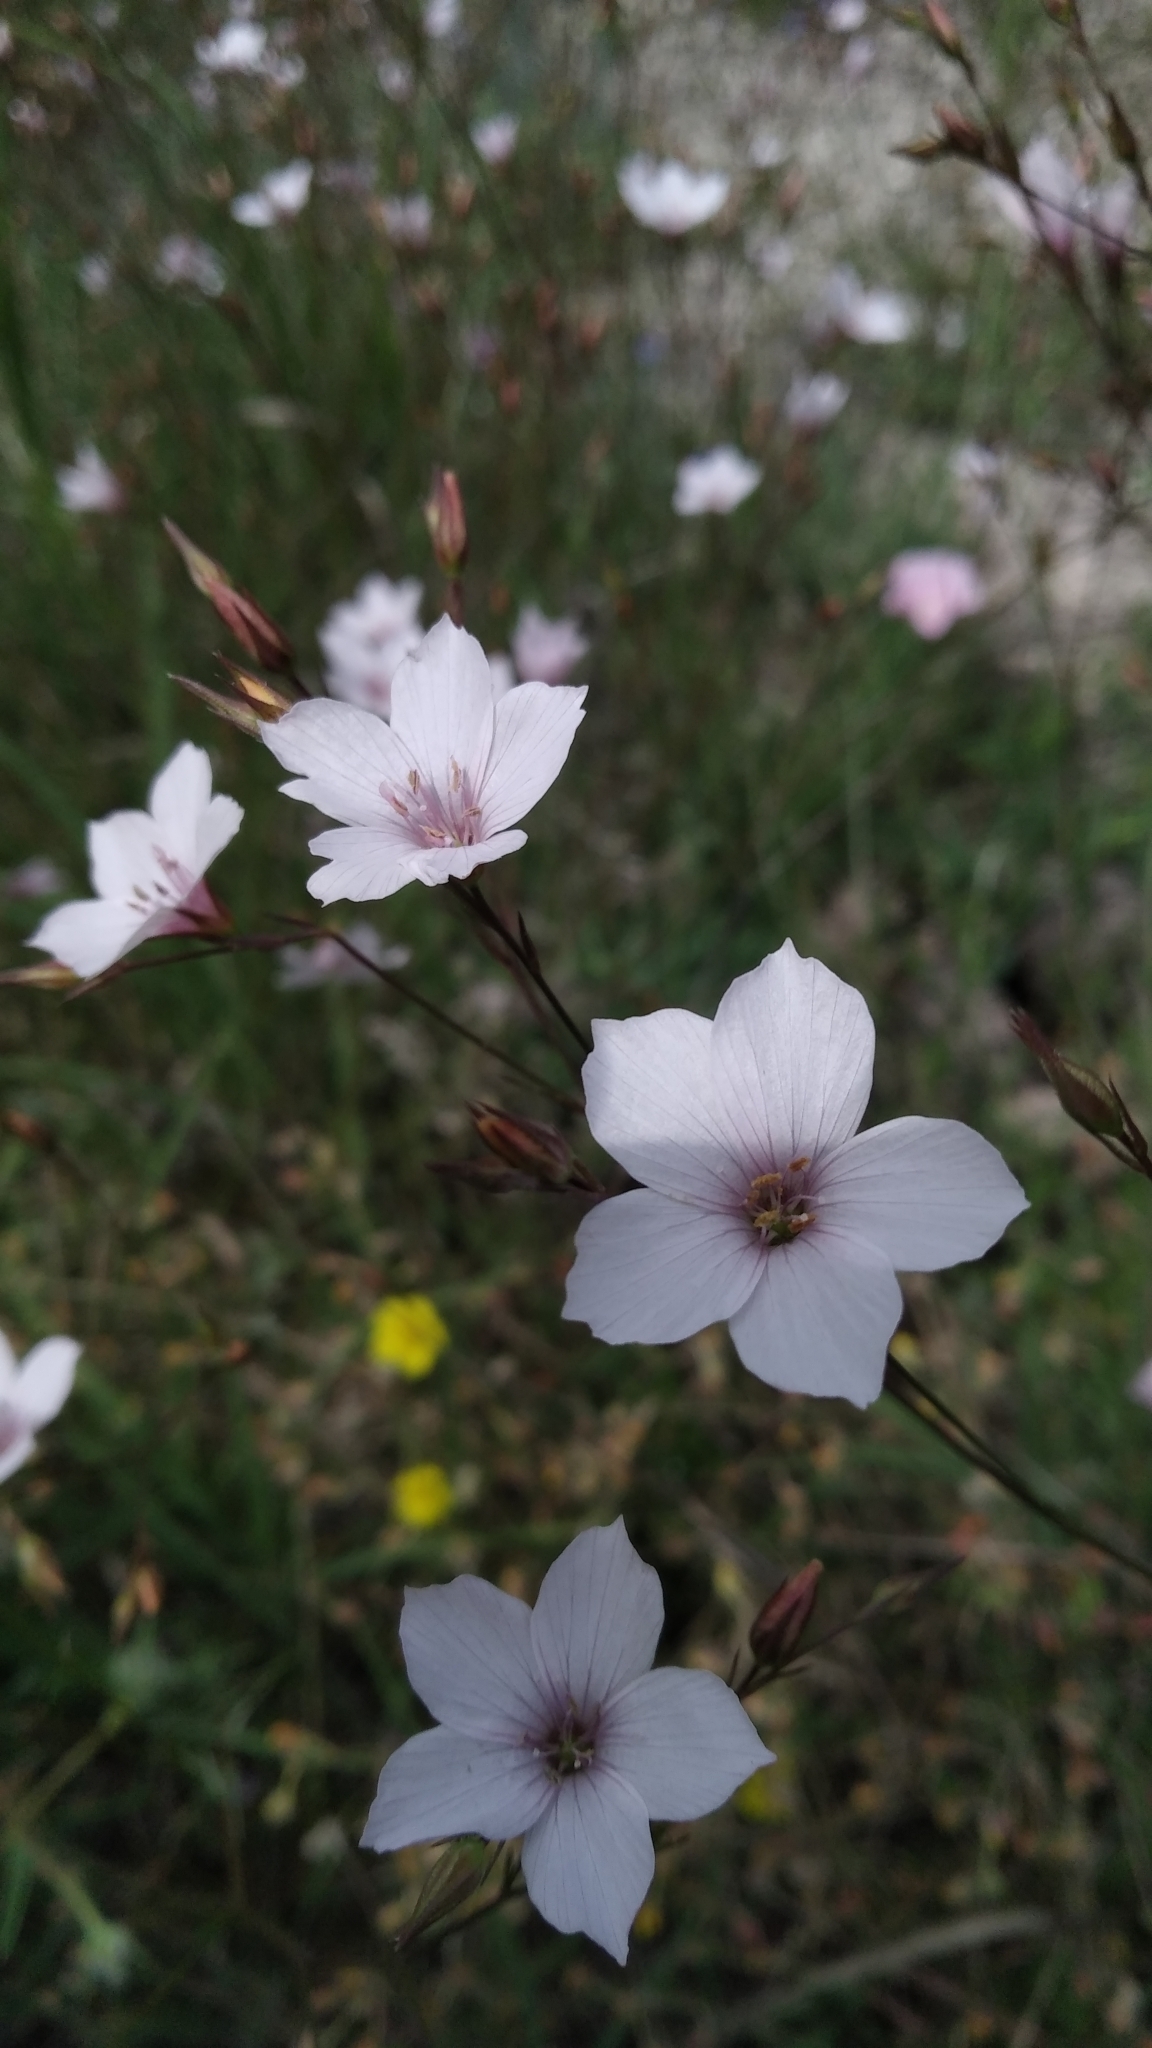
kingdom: Plantae
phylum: Tracheophyta
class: Magnoliopsida
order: Malpighiales
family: Linaceae
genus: Linum
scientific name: Linum tenuifolium
